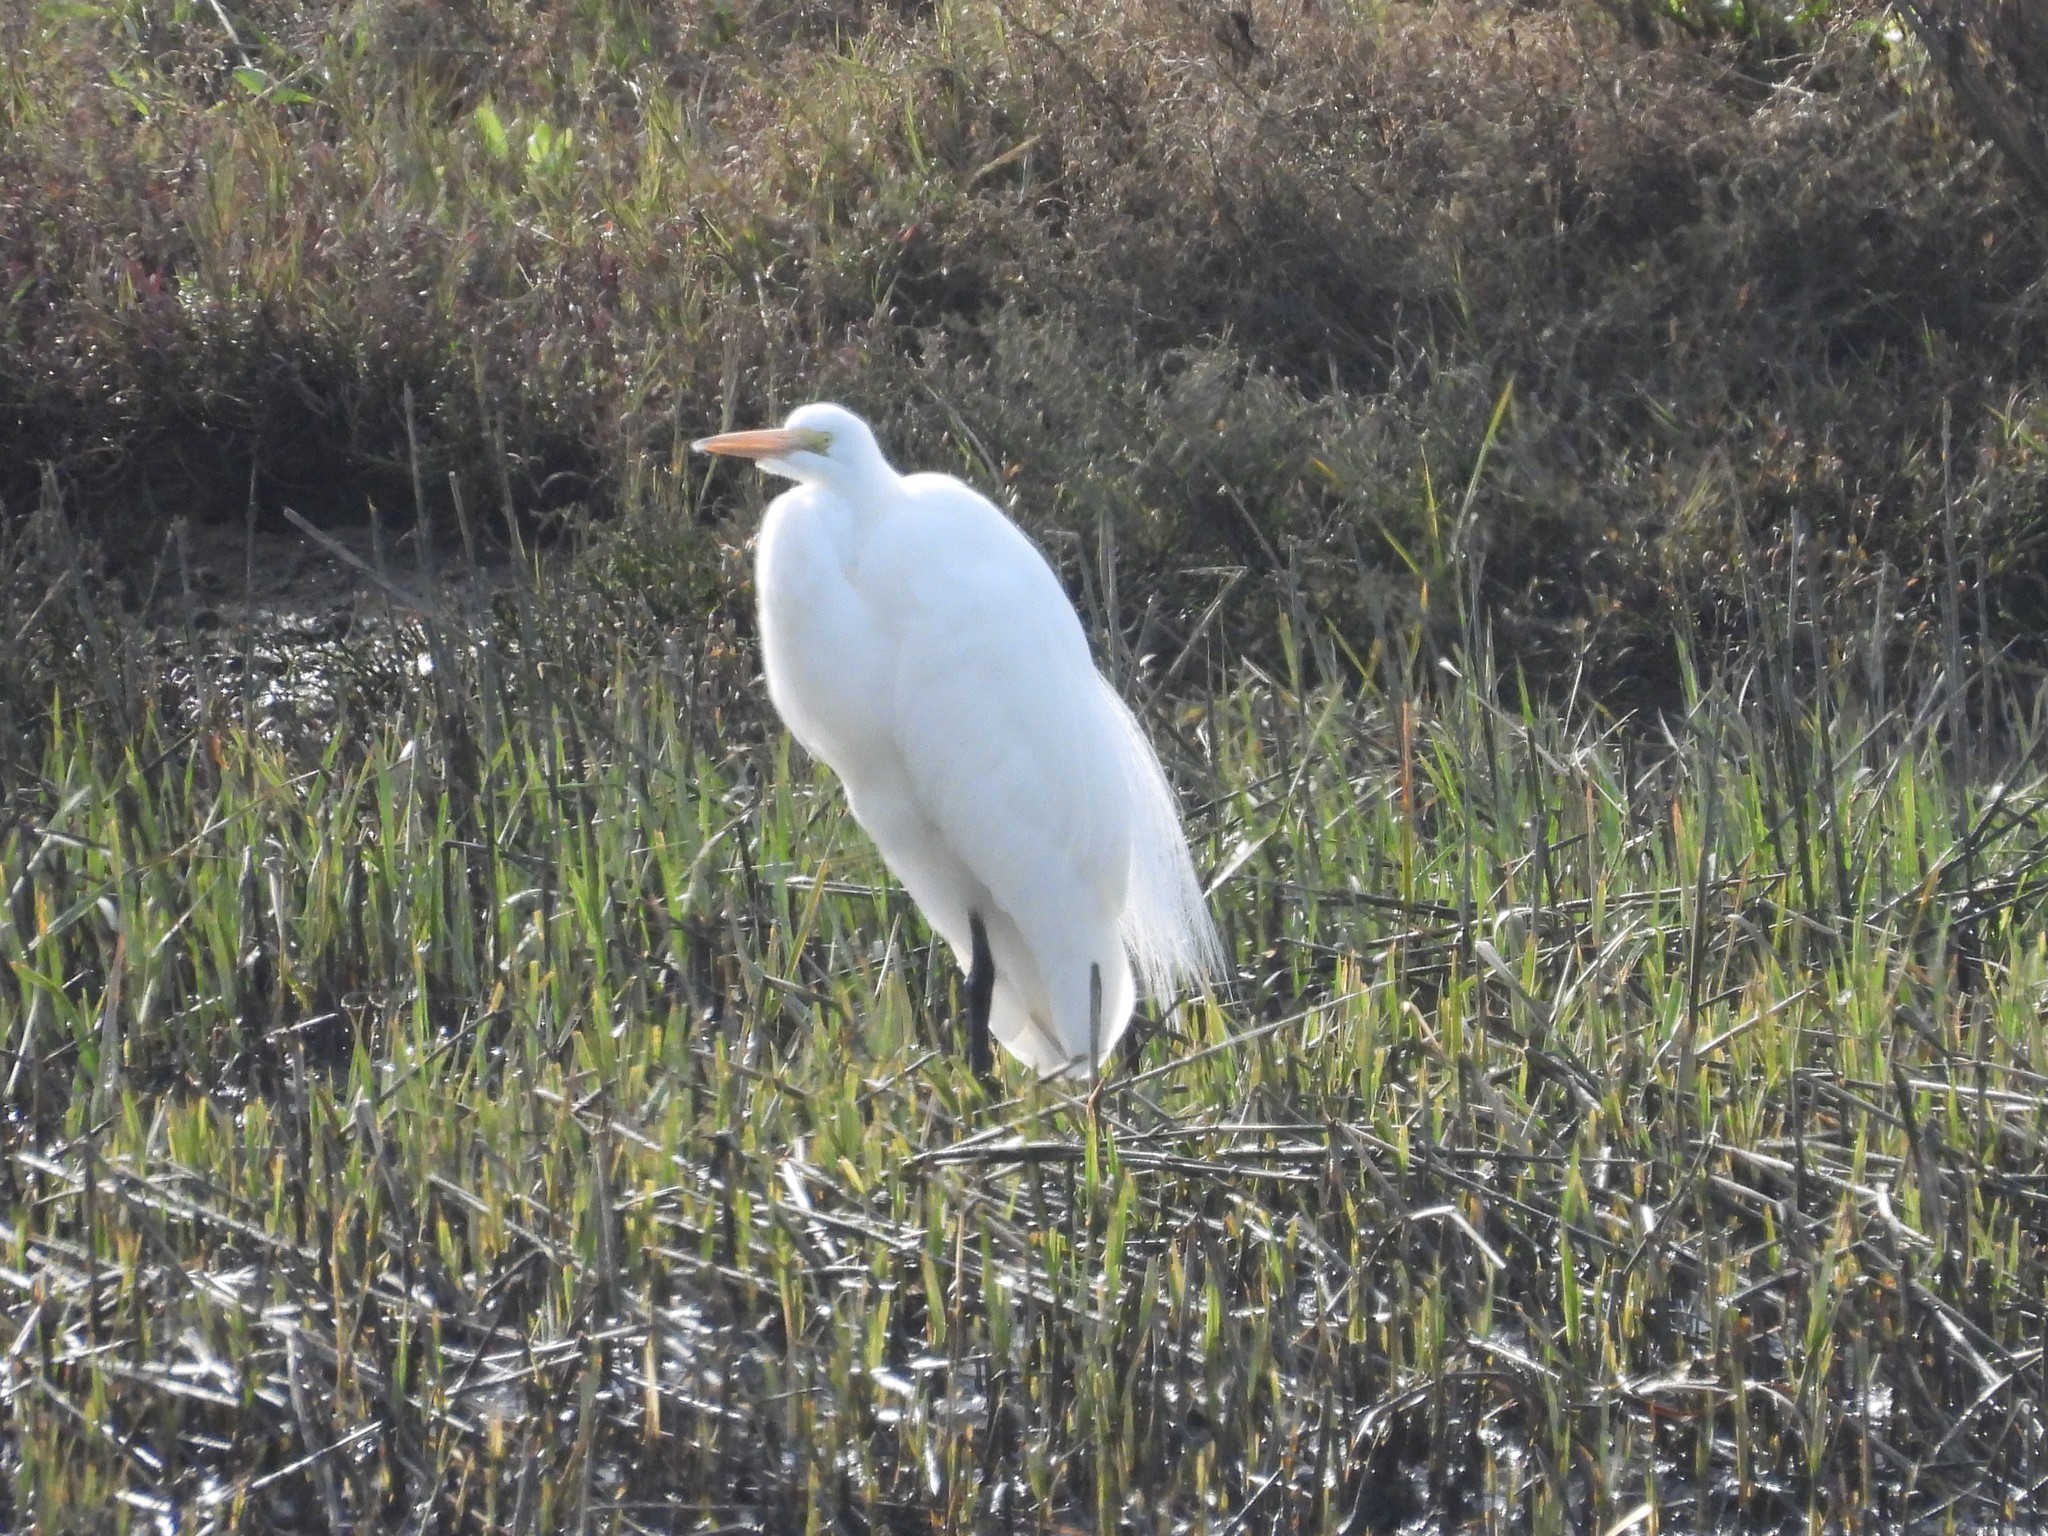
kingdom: Animalia
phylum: Chordata
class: Aves
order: Pelecaniformes
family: Ardeidae
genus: Ardea
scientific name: Ardea alba
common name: Great egret
